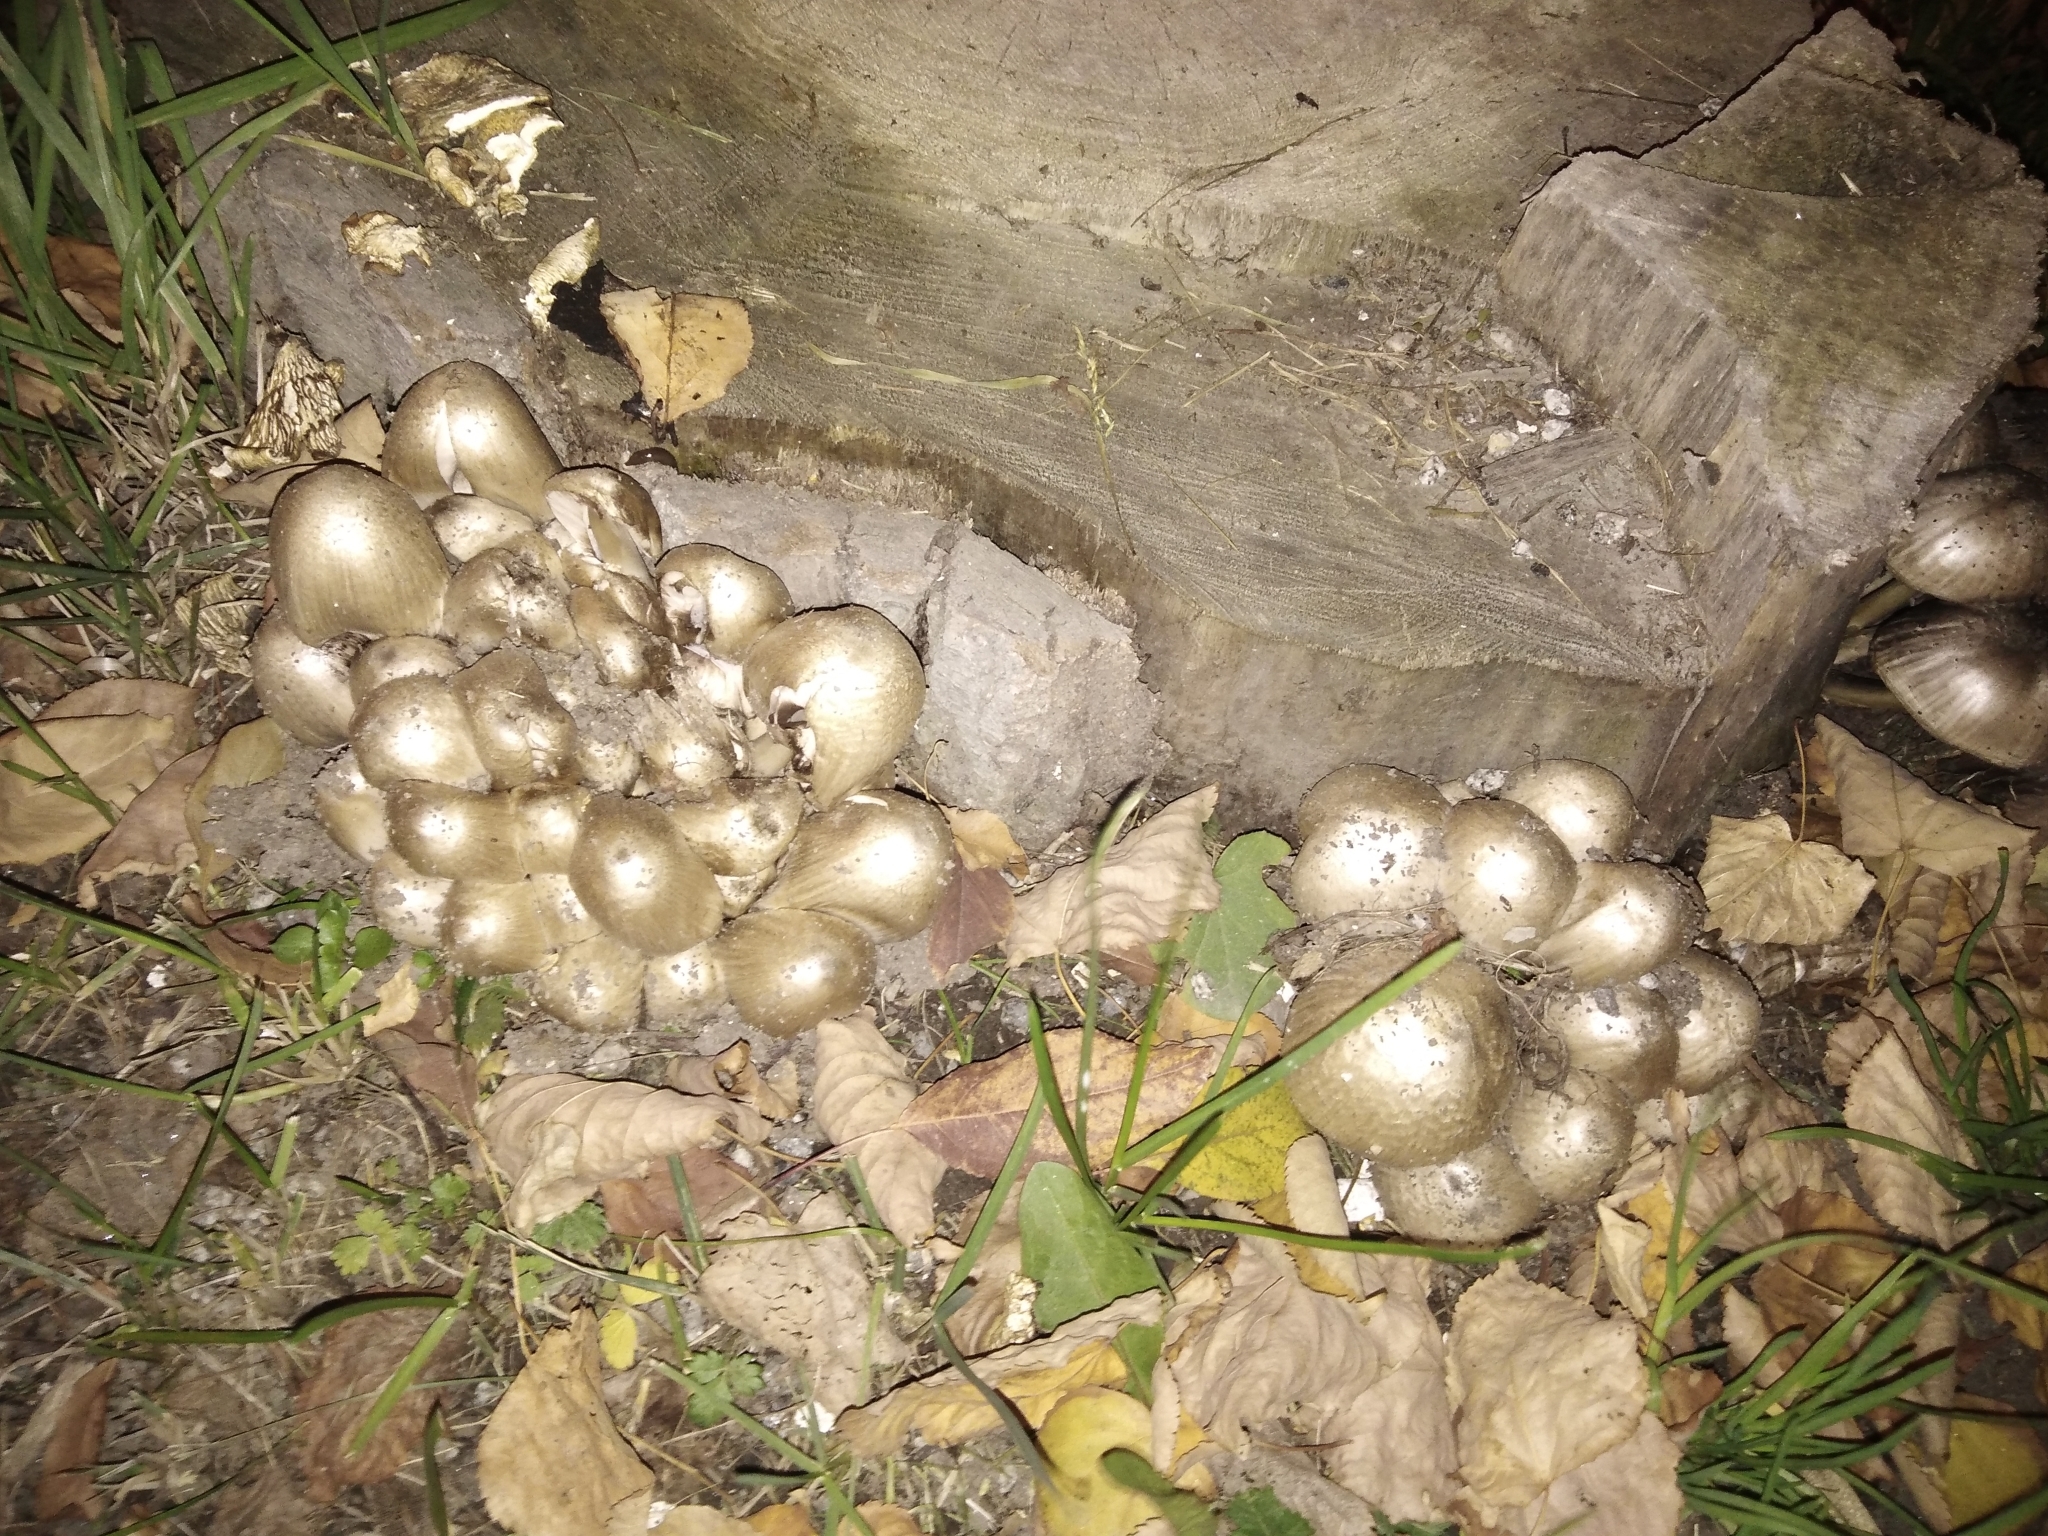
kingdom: Fungi
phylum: Basidiomycota
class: Agaricomycetes
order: Agaricales
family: Psathyrellaceae
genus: Coprinopsis
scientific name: Coprinopsis atramentaria
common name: Common ink-cap
